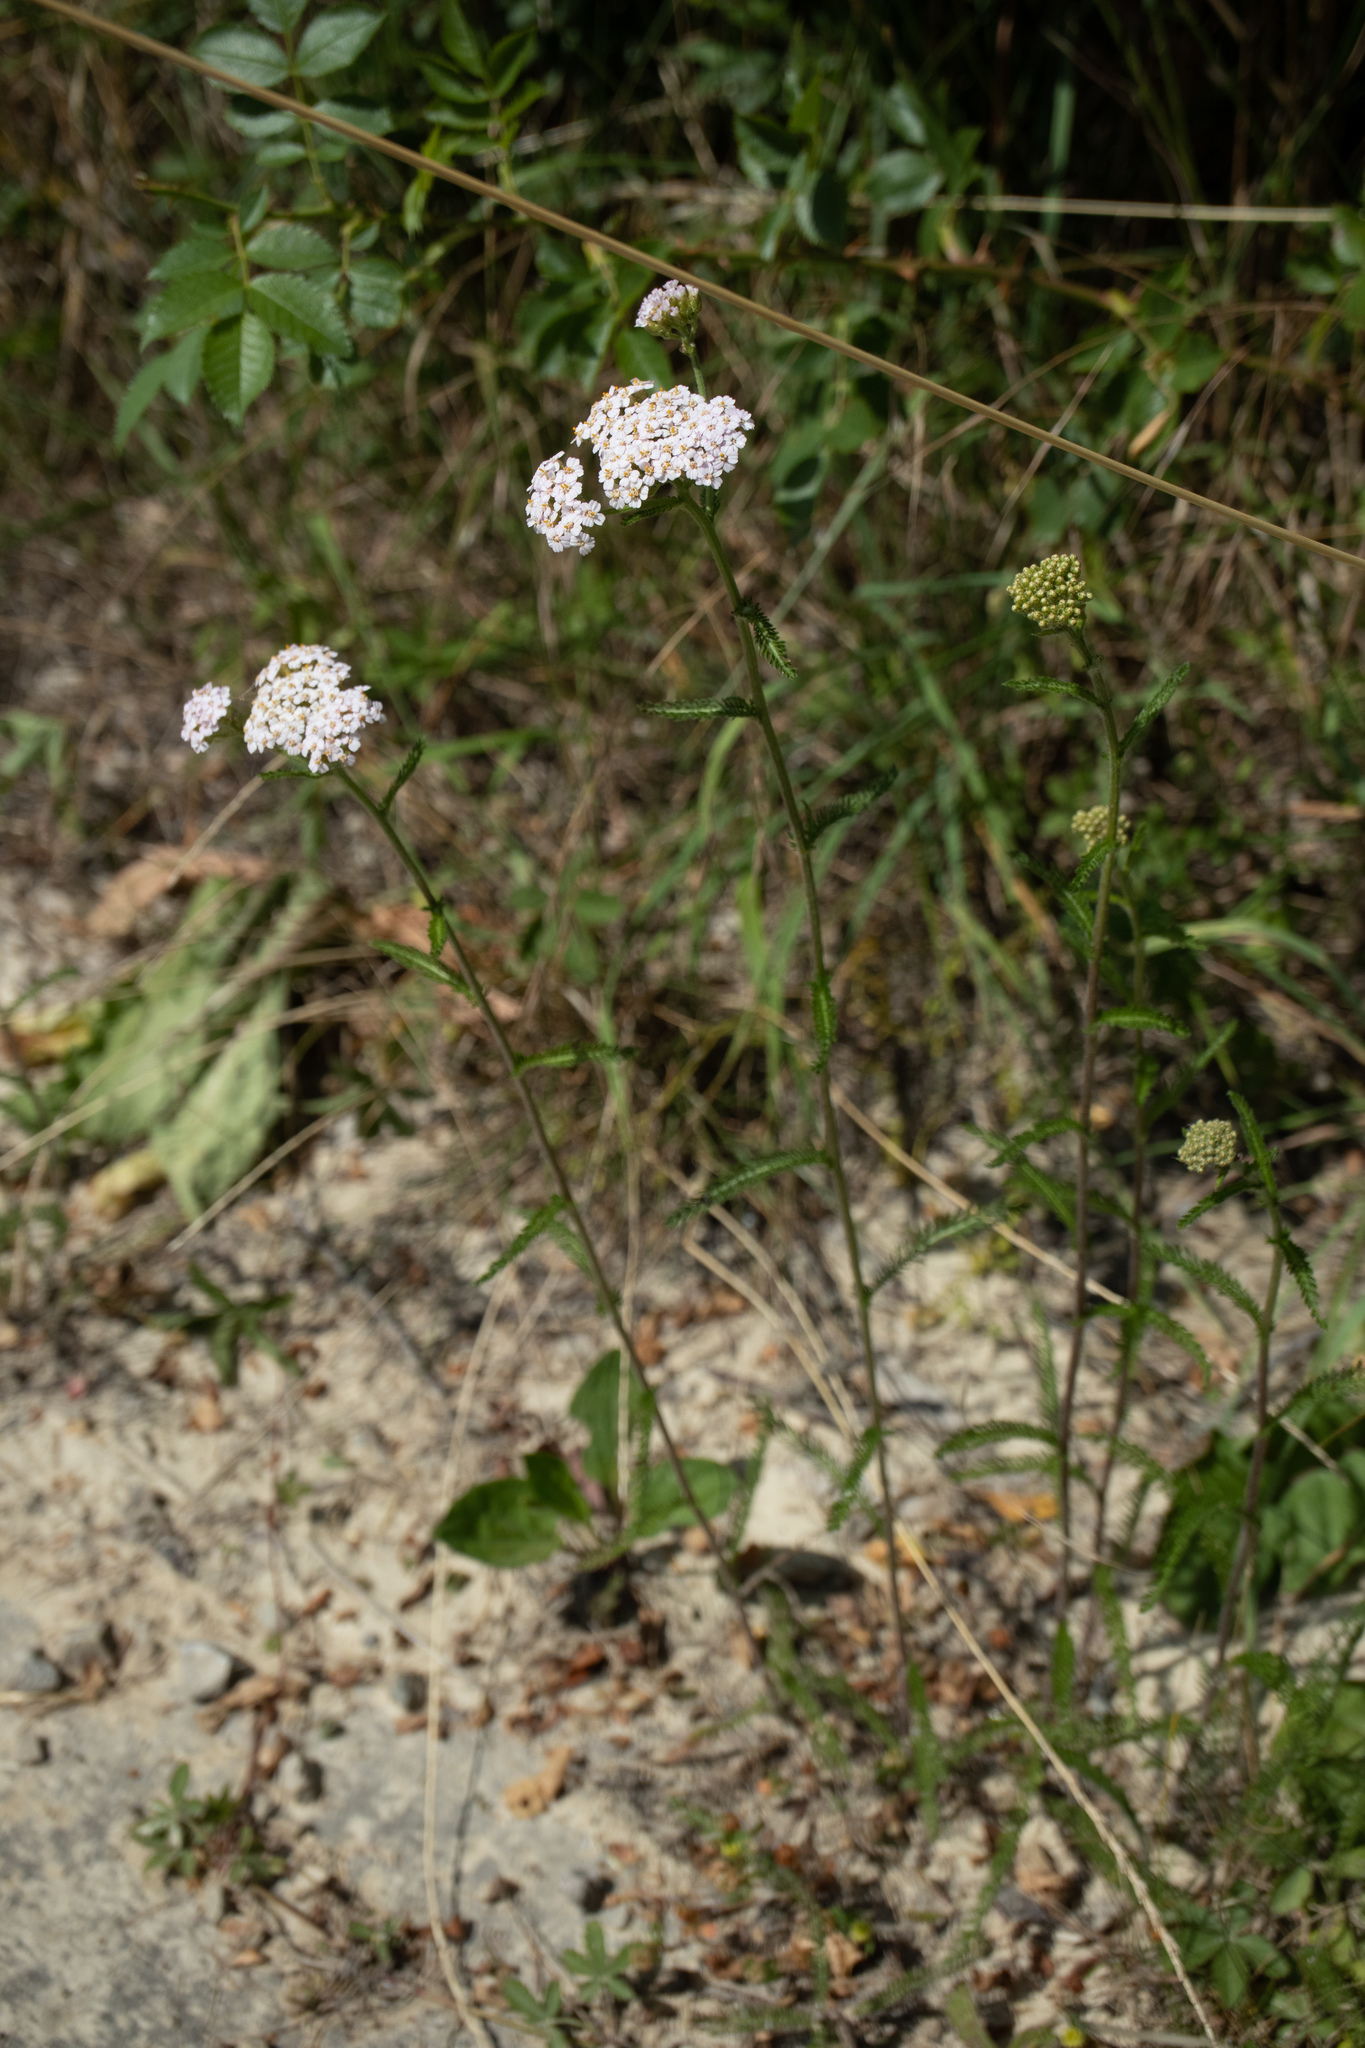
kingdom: Plantae
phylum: Tracheophyta
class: Magnoliopsida
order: Asterales
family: Asteraceae
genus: Achillea
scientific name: Achillea millefolium
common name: Yarrow
